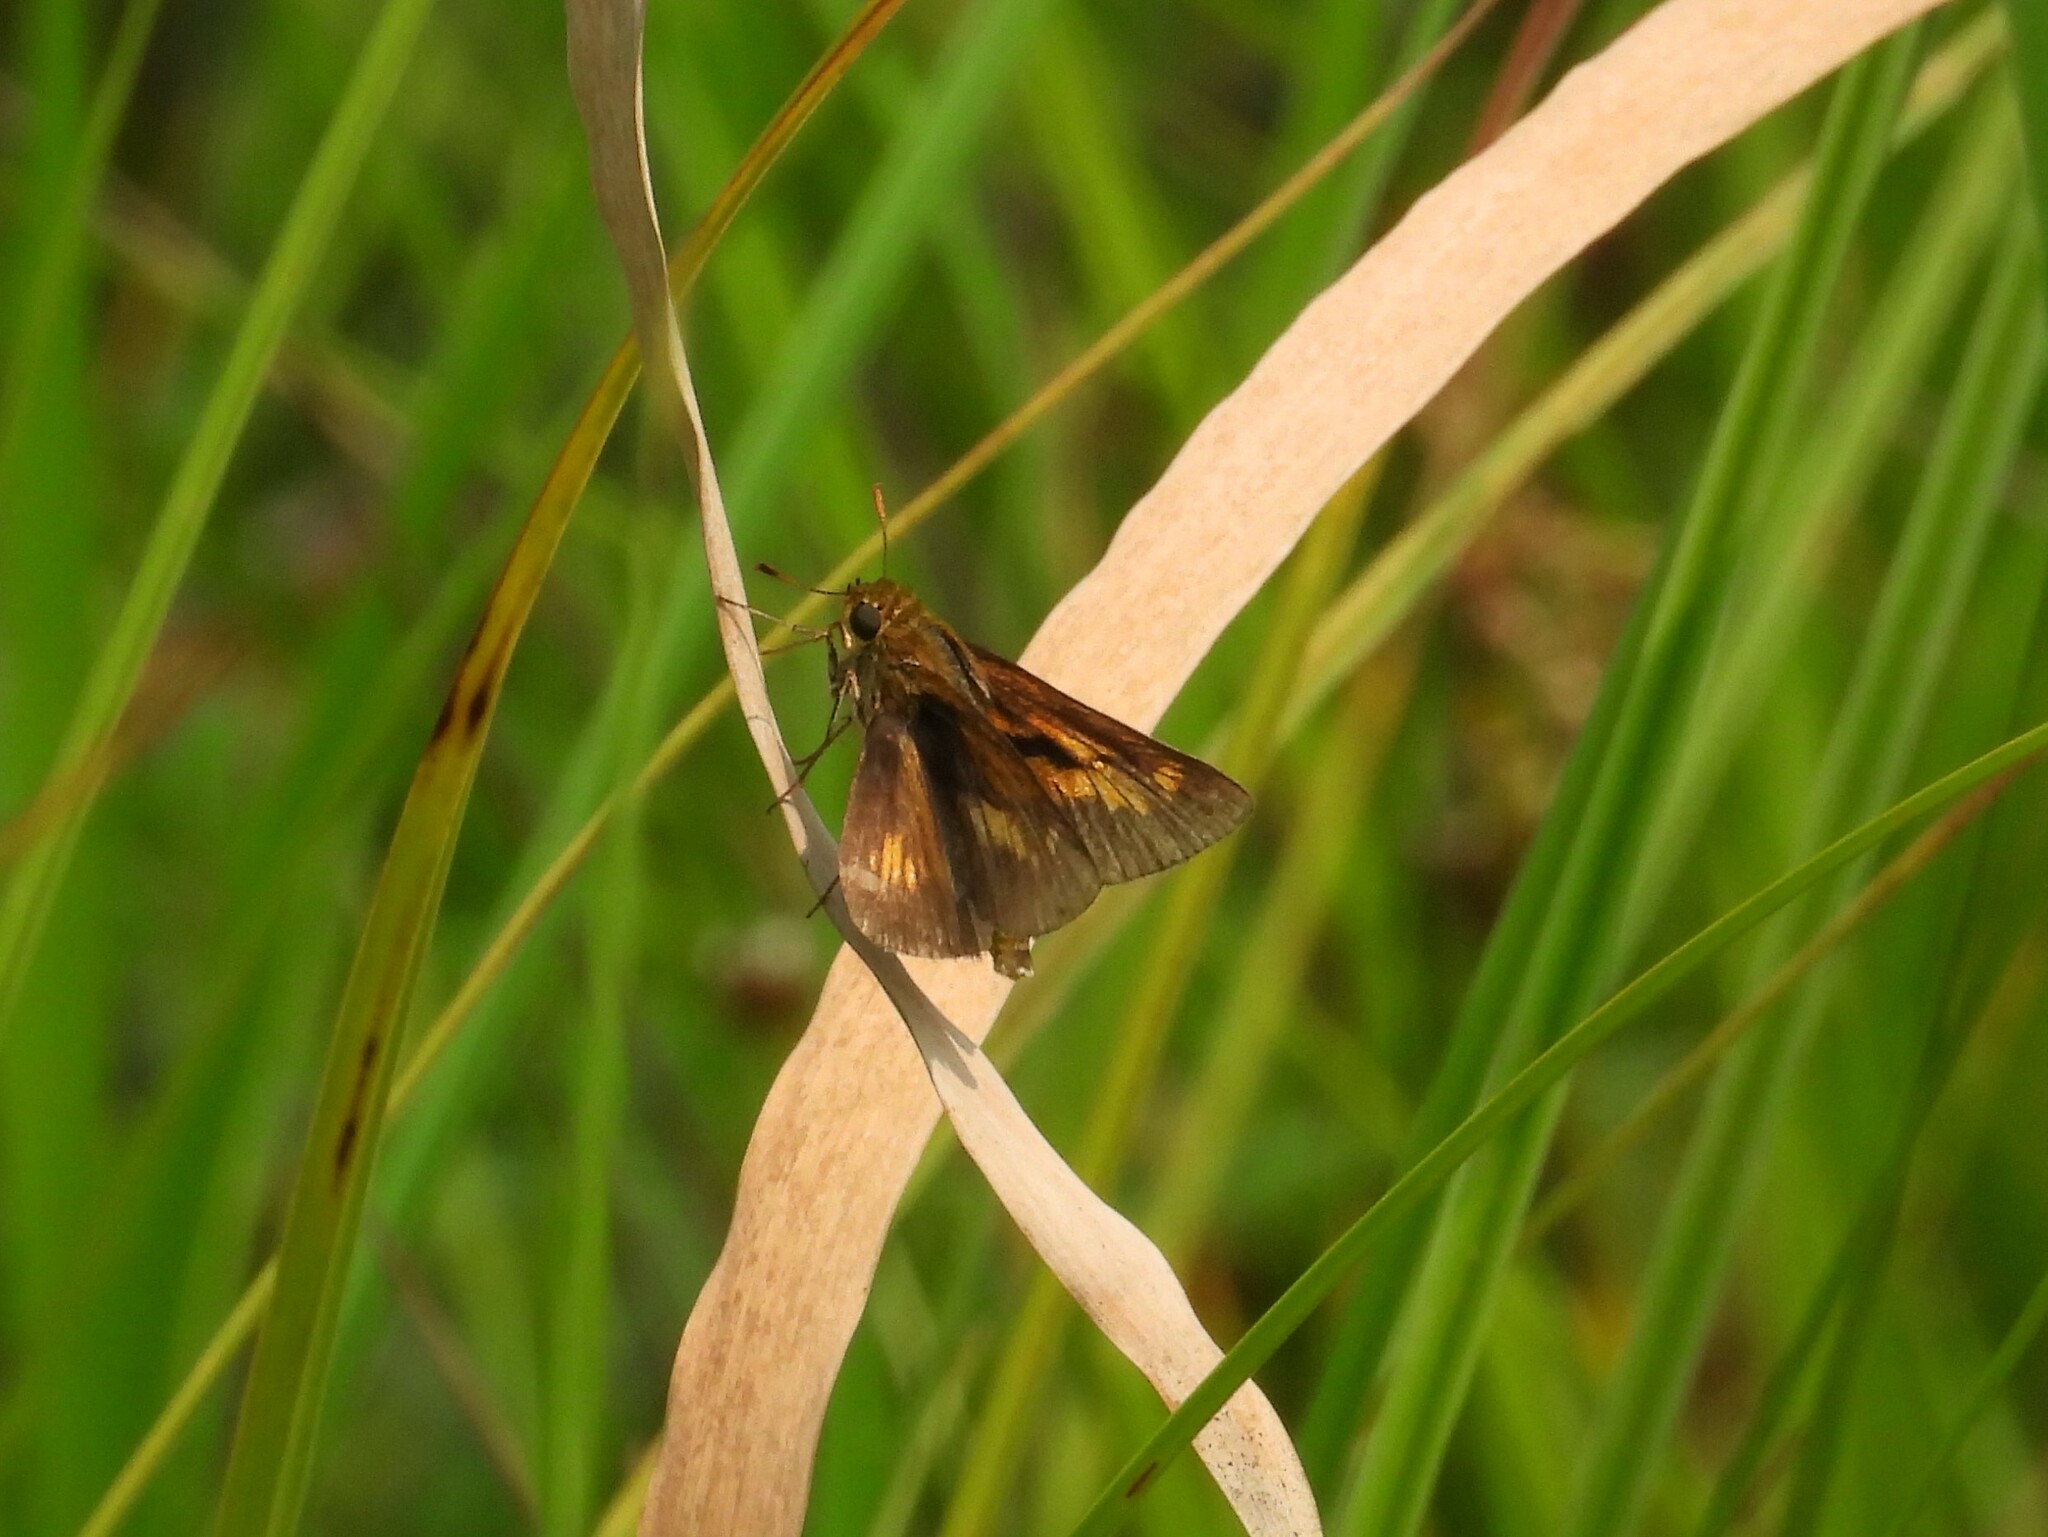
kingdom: Animalia
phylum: Arthropoda
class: Insecta
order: Lepidoptera
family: Hesperiidae
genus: Euphyes
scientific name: Euphyes conspicua
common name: Black dash
